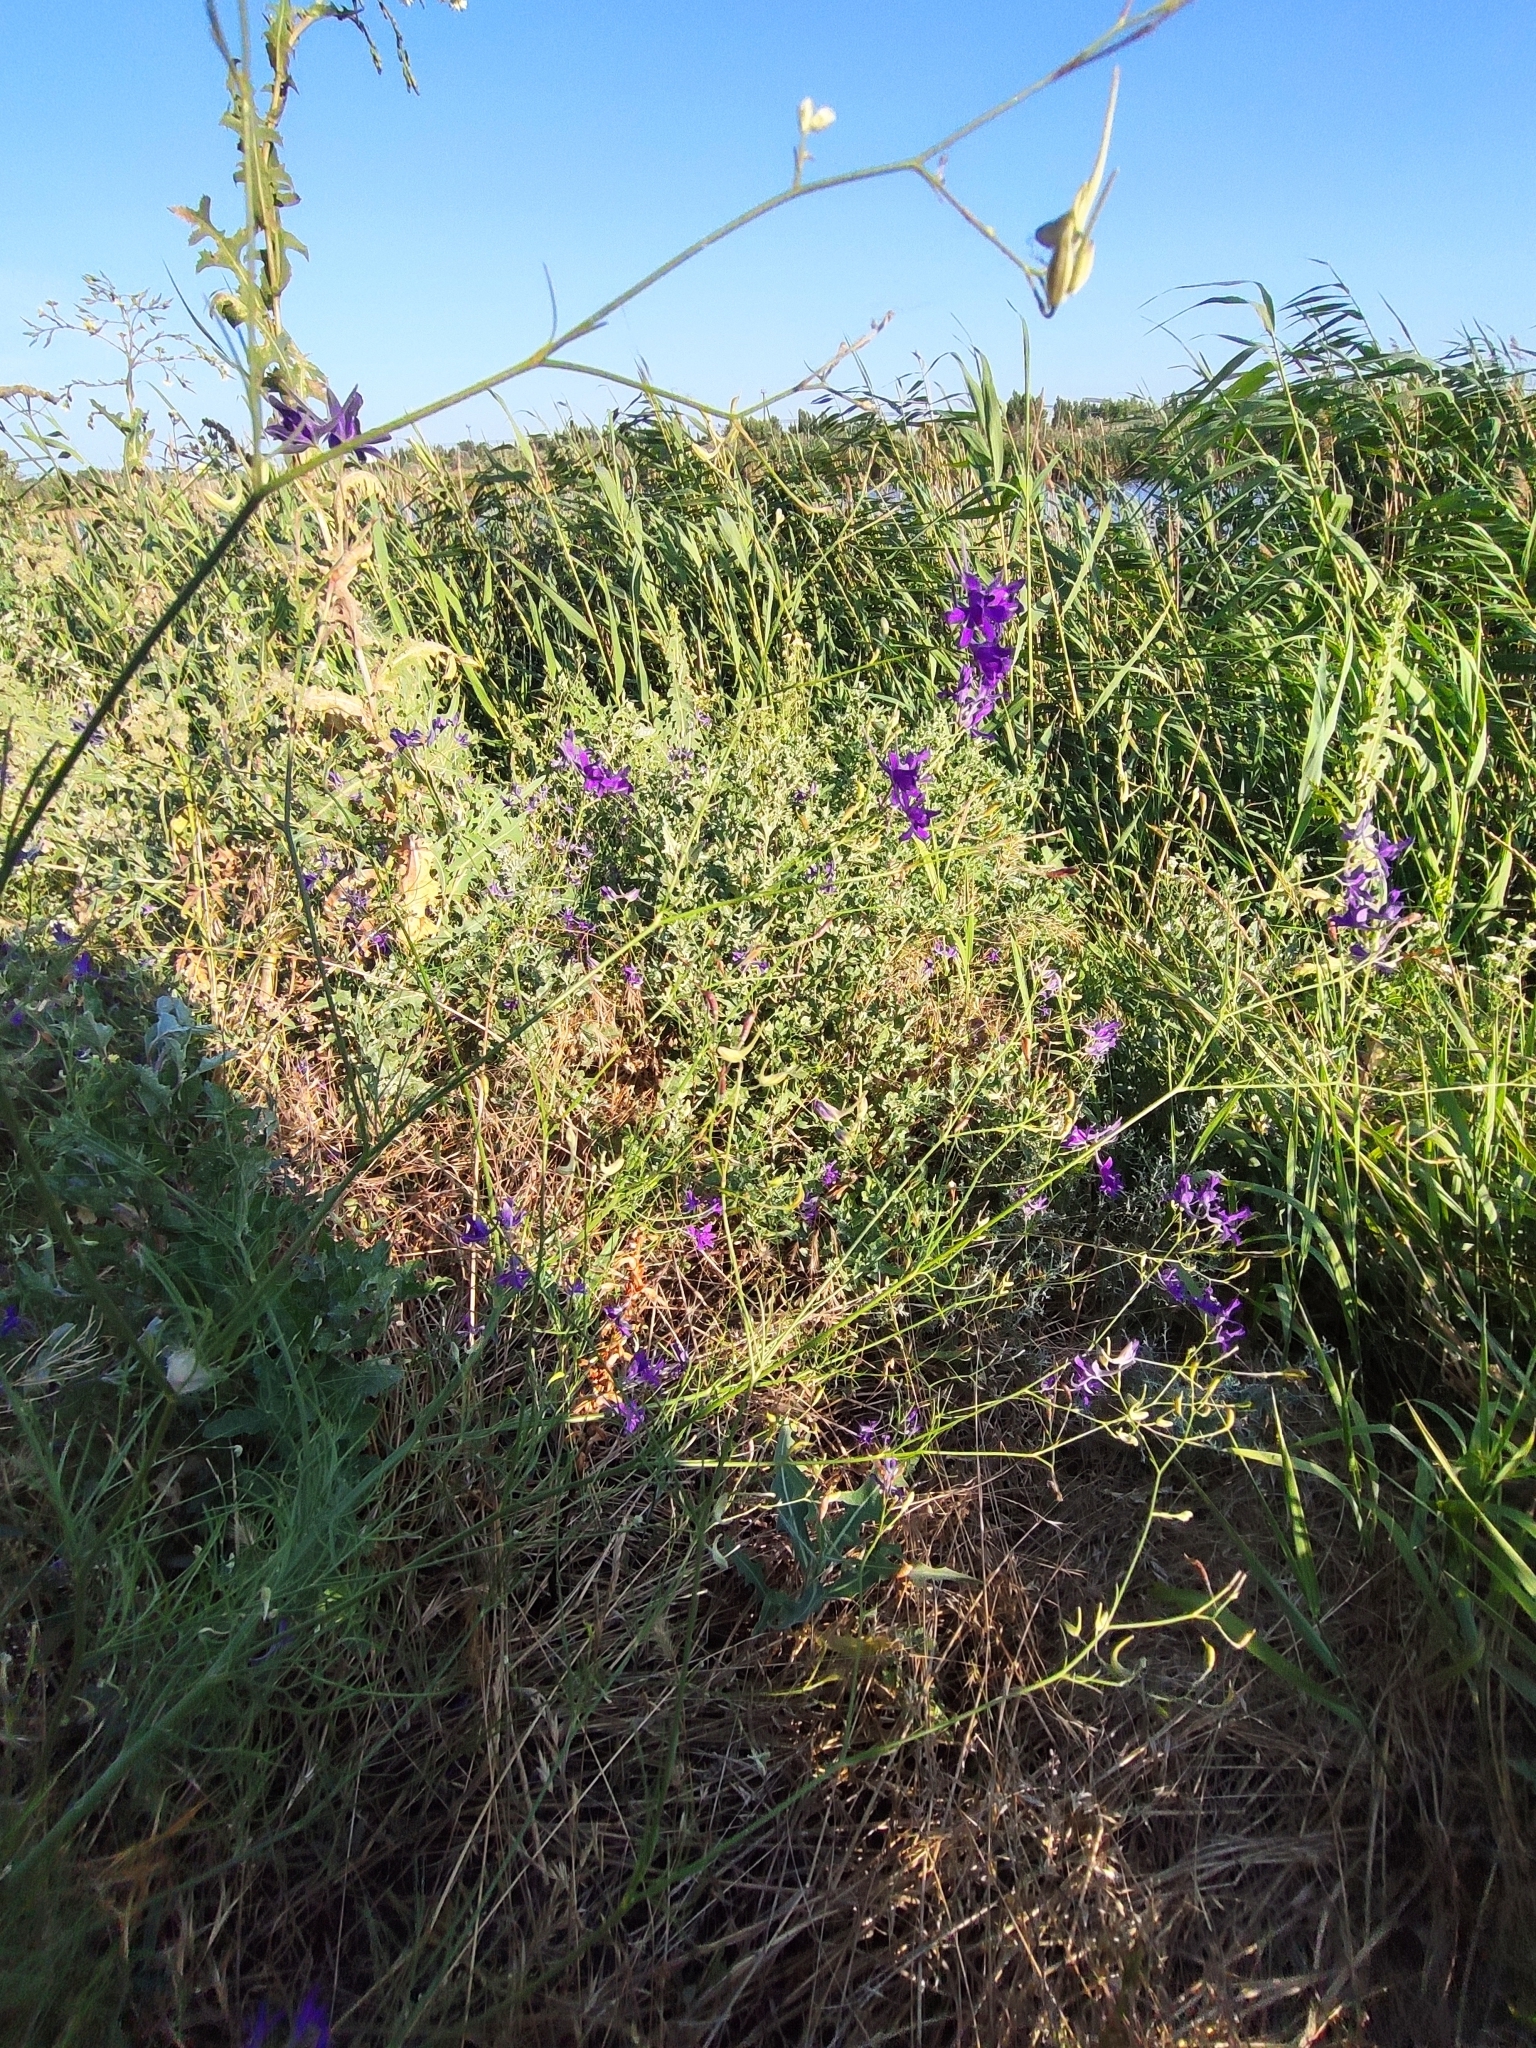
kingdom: Plantae
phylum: Tracheophyta
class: Magnoliopsida
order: Ranunculales
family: Ranunculaceae
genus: Delphinium
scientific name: Delphinium consolida
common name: Branching larkspur
